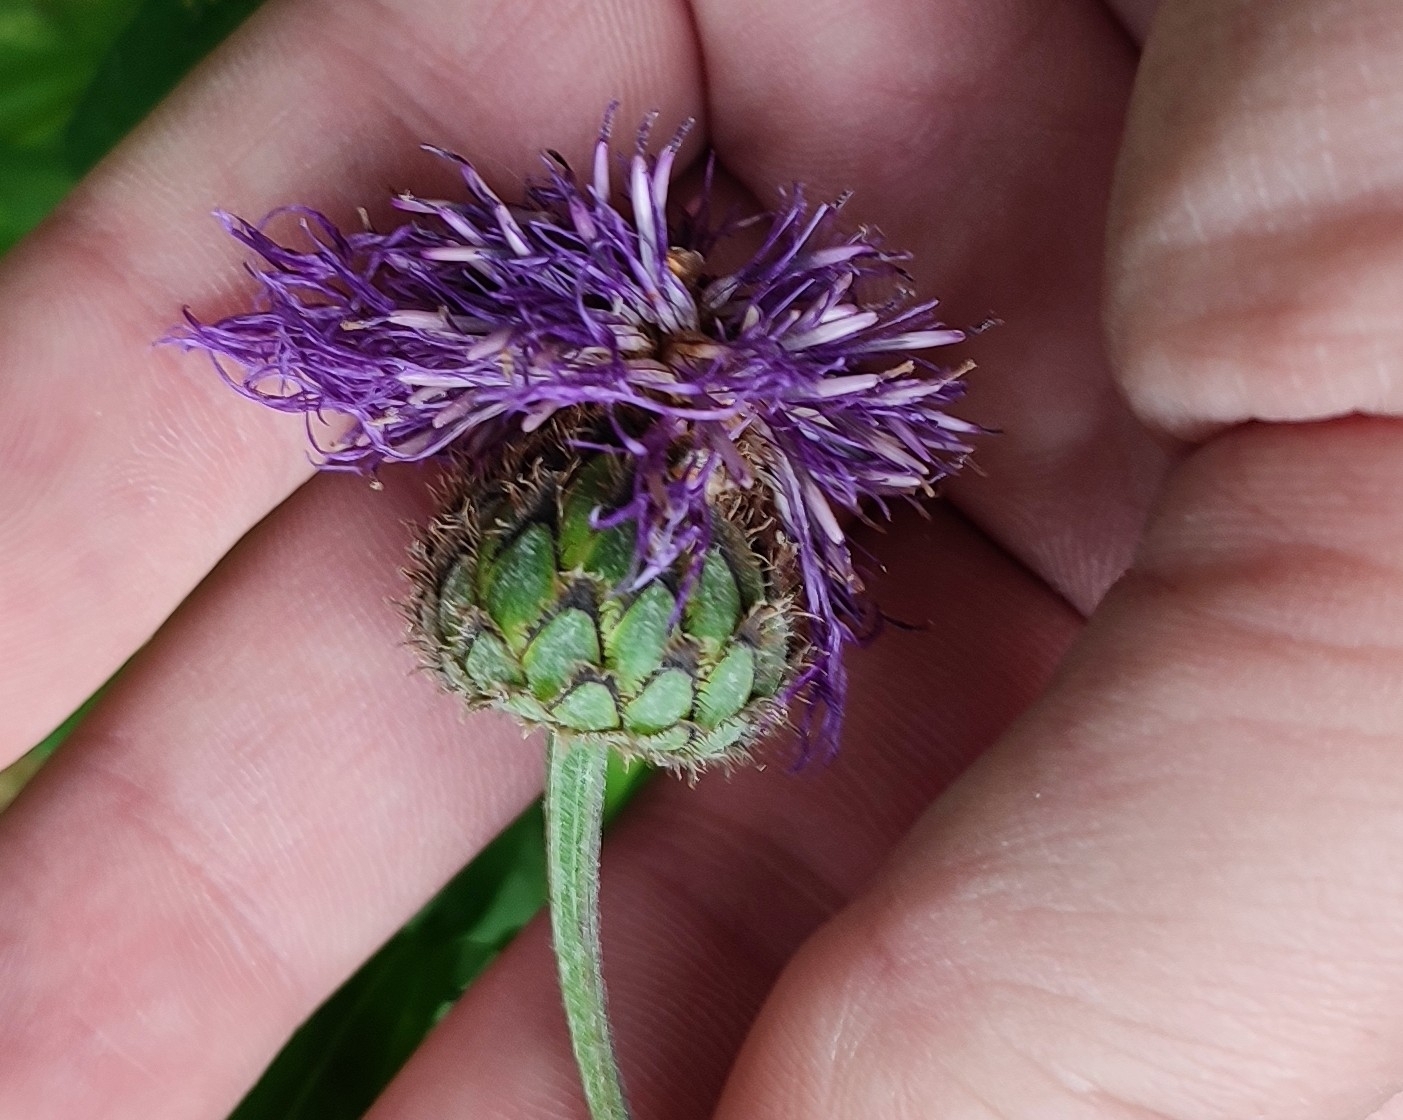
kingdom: Plantae
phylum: Tracheophyta
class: Magnoliopsida
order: Asterales
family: Asteraceae
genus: Centaurea
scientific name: Centaurea scabiosa
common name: Greater knapweed
